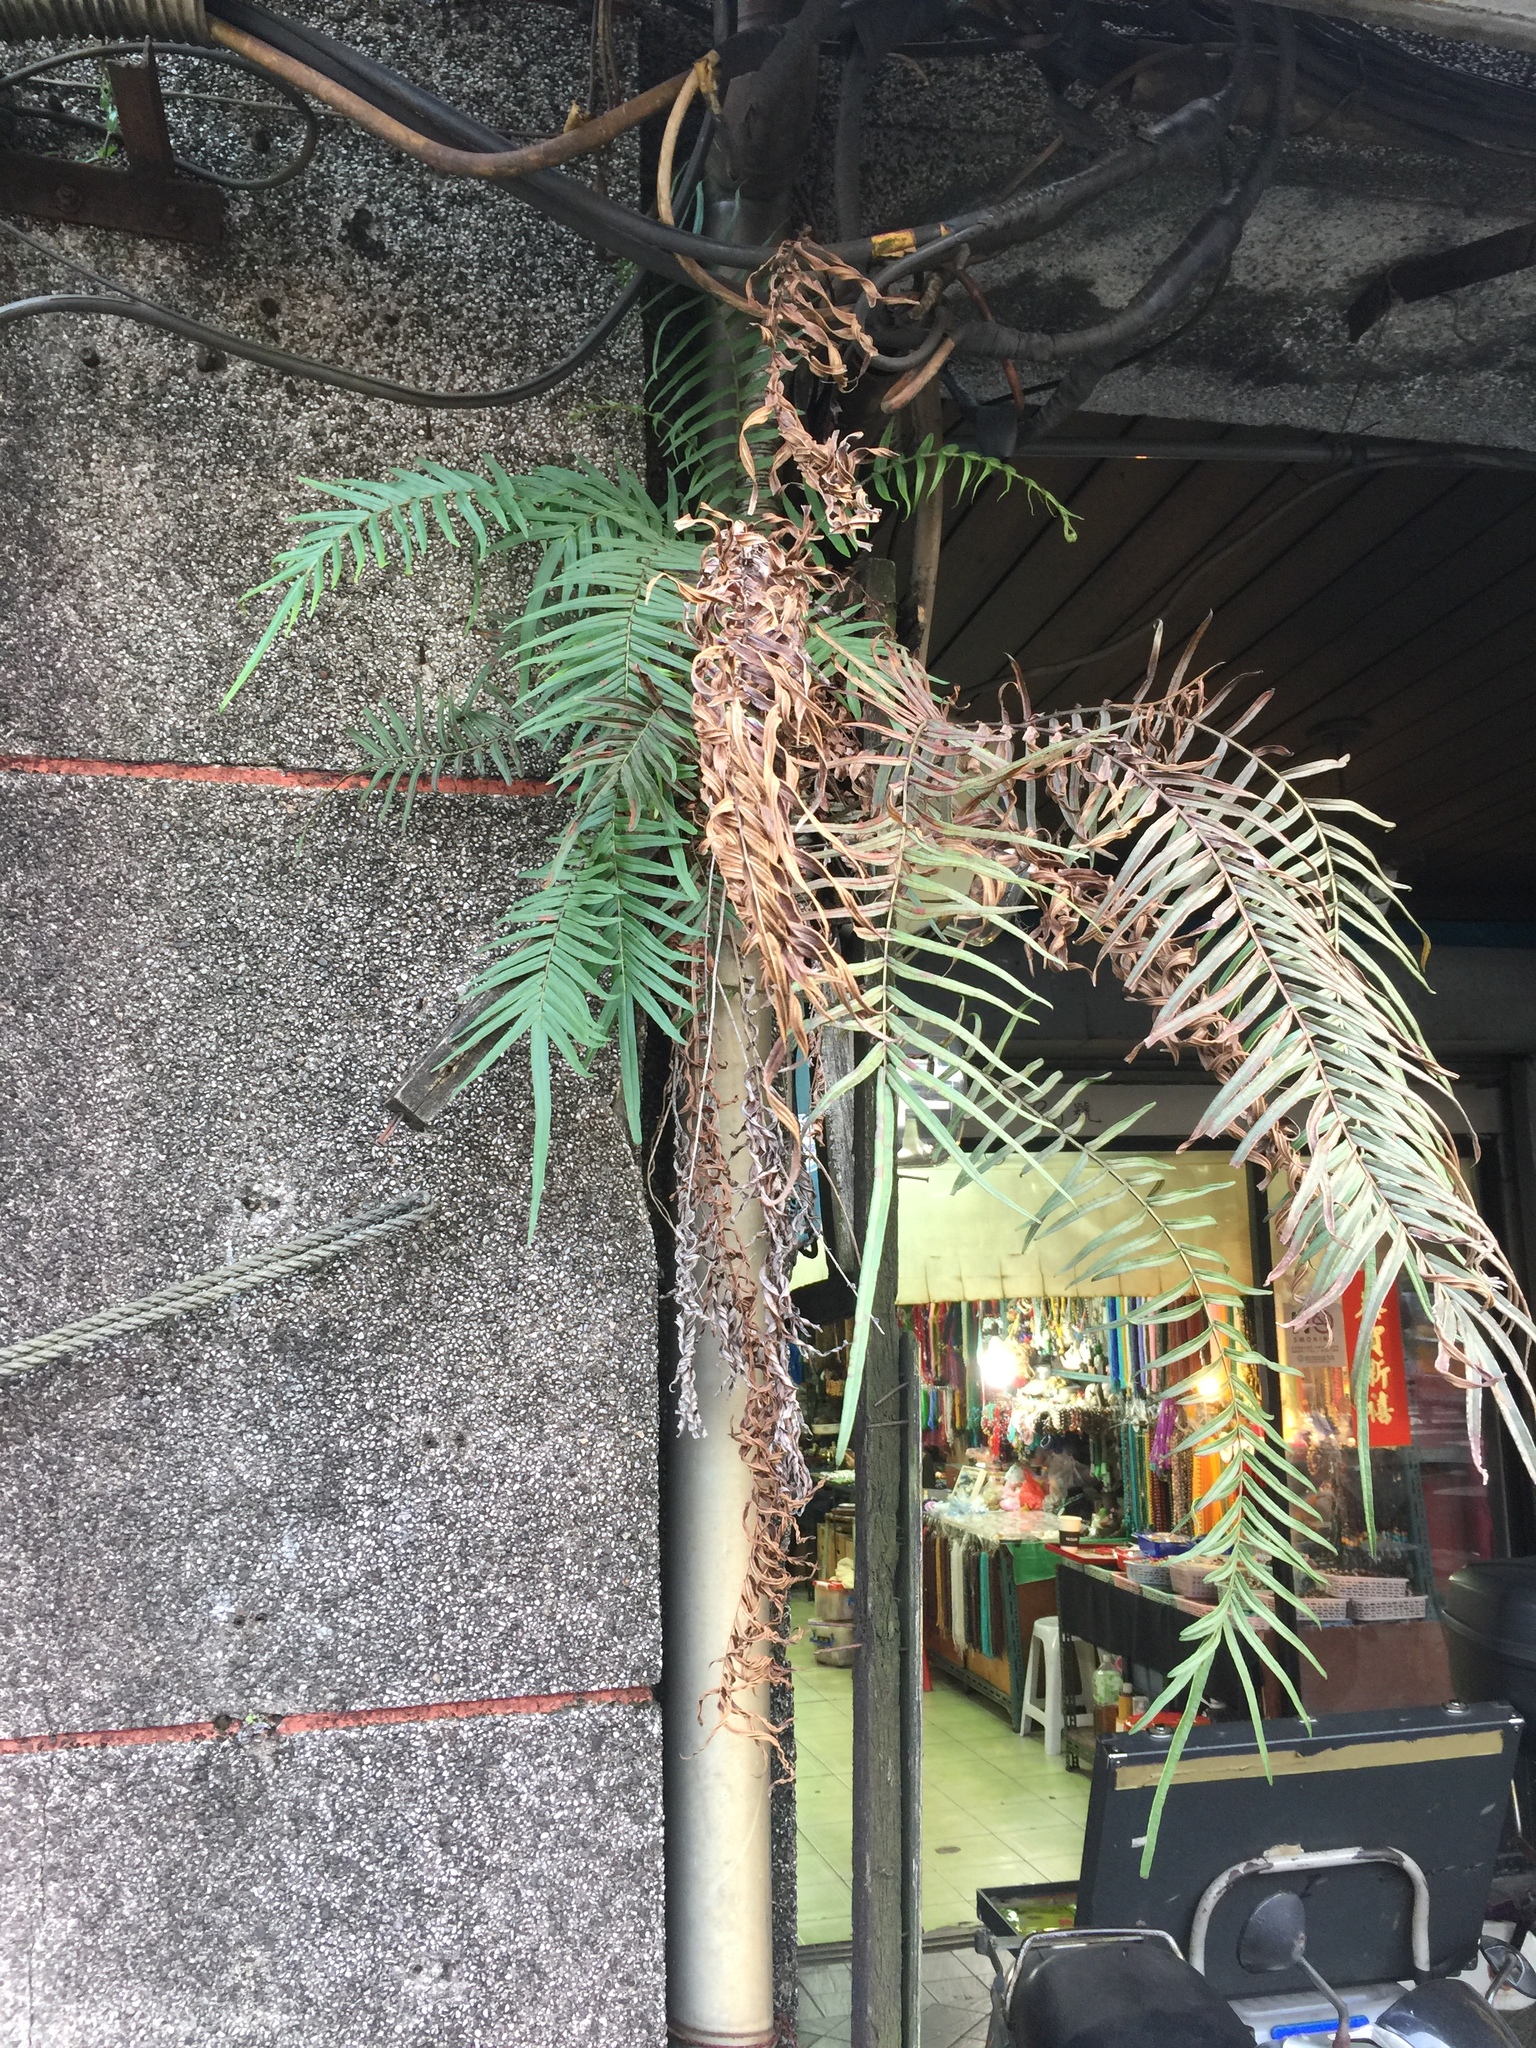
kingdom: Plantae
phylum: Tracheophyta
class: Polypodiopsida
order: Polypodiales
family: Pteridaceae
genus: Pteris
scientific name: Pteris vittata
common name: Ladder brake
